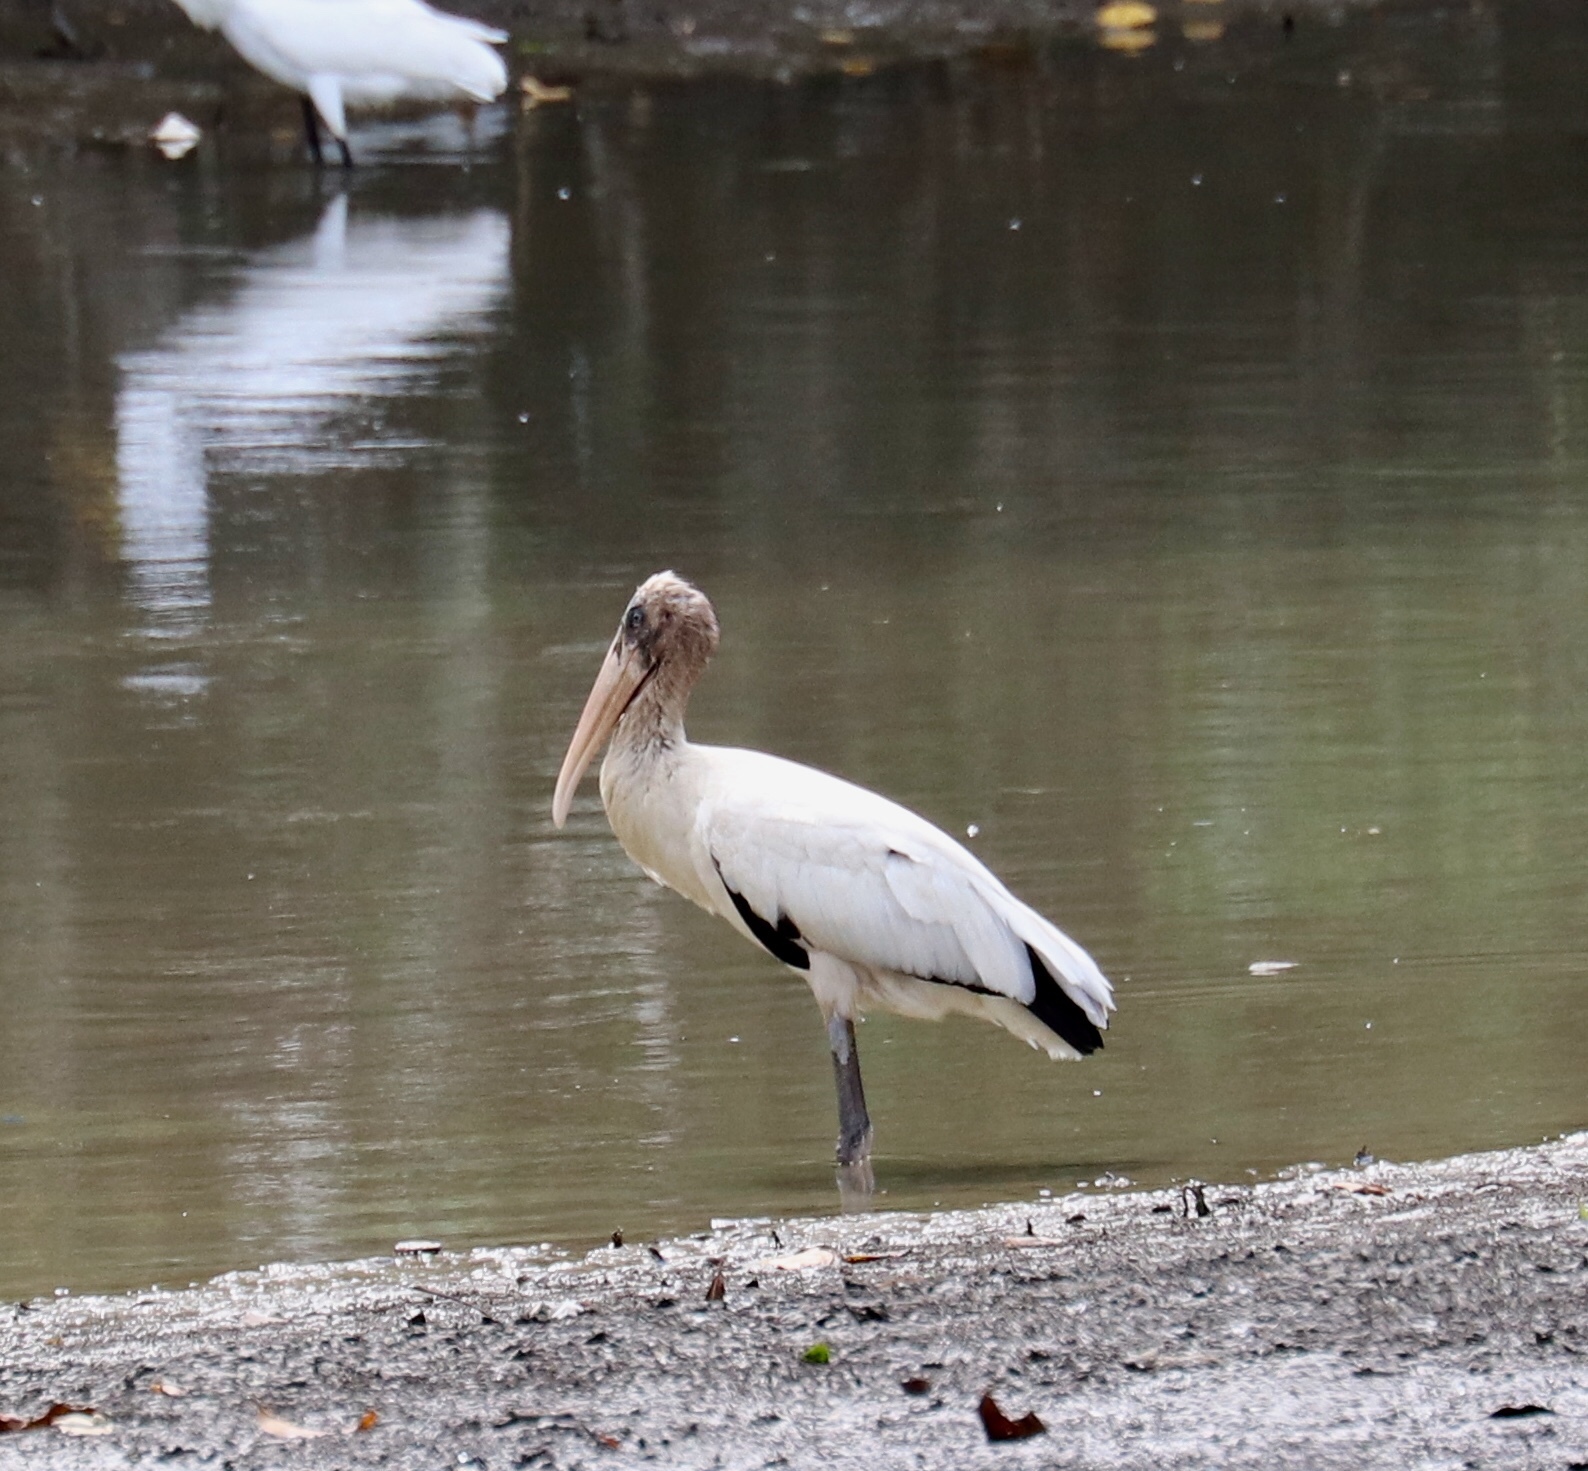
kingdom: Animalia
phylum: Chordata
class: Aves
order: Ciconiiformes
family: Ciconiidae
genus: Mycteria
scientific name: Mycteria americana
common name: Wood stork
